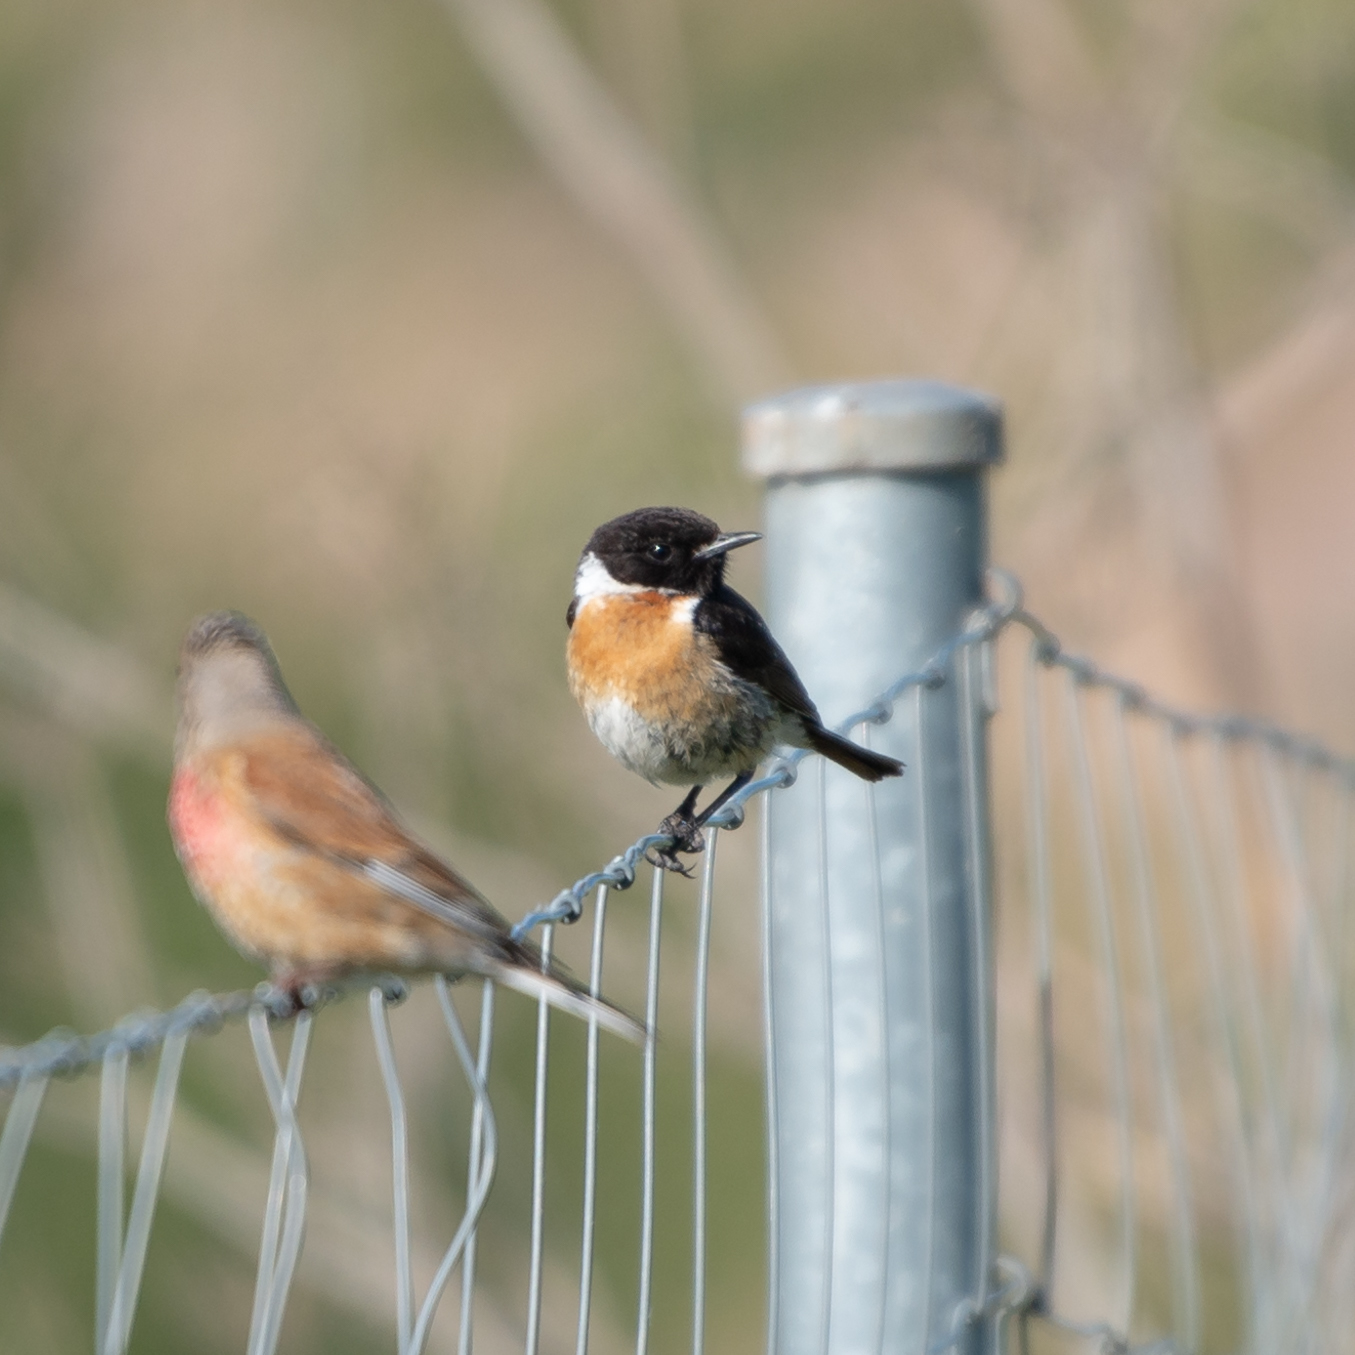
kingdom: Animalia
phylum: Chordata
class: Aves
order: Passeriformes
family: Muscicapidae
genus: Saxicola
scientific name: Saxicola rubicola
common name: European stonechat
